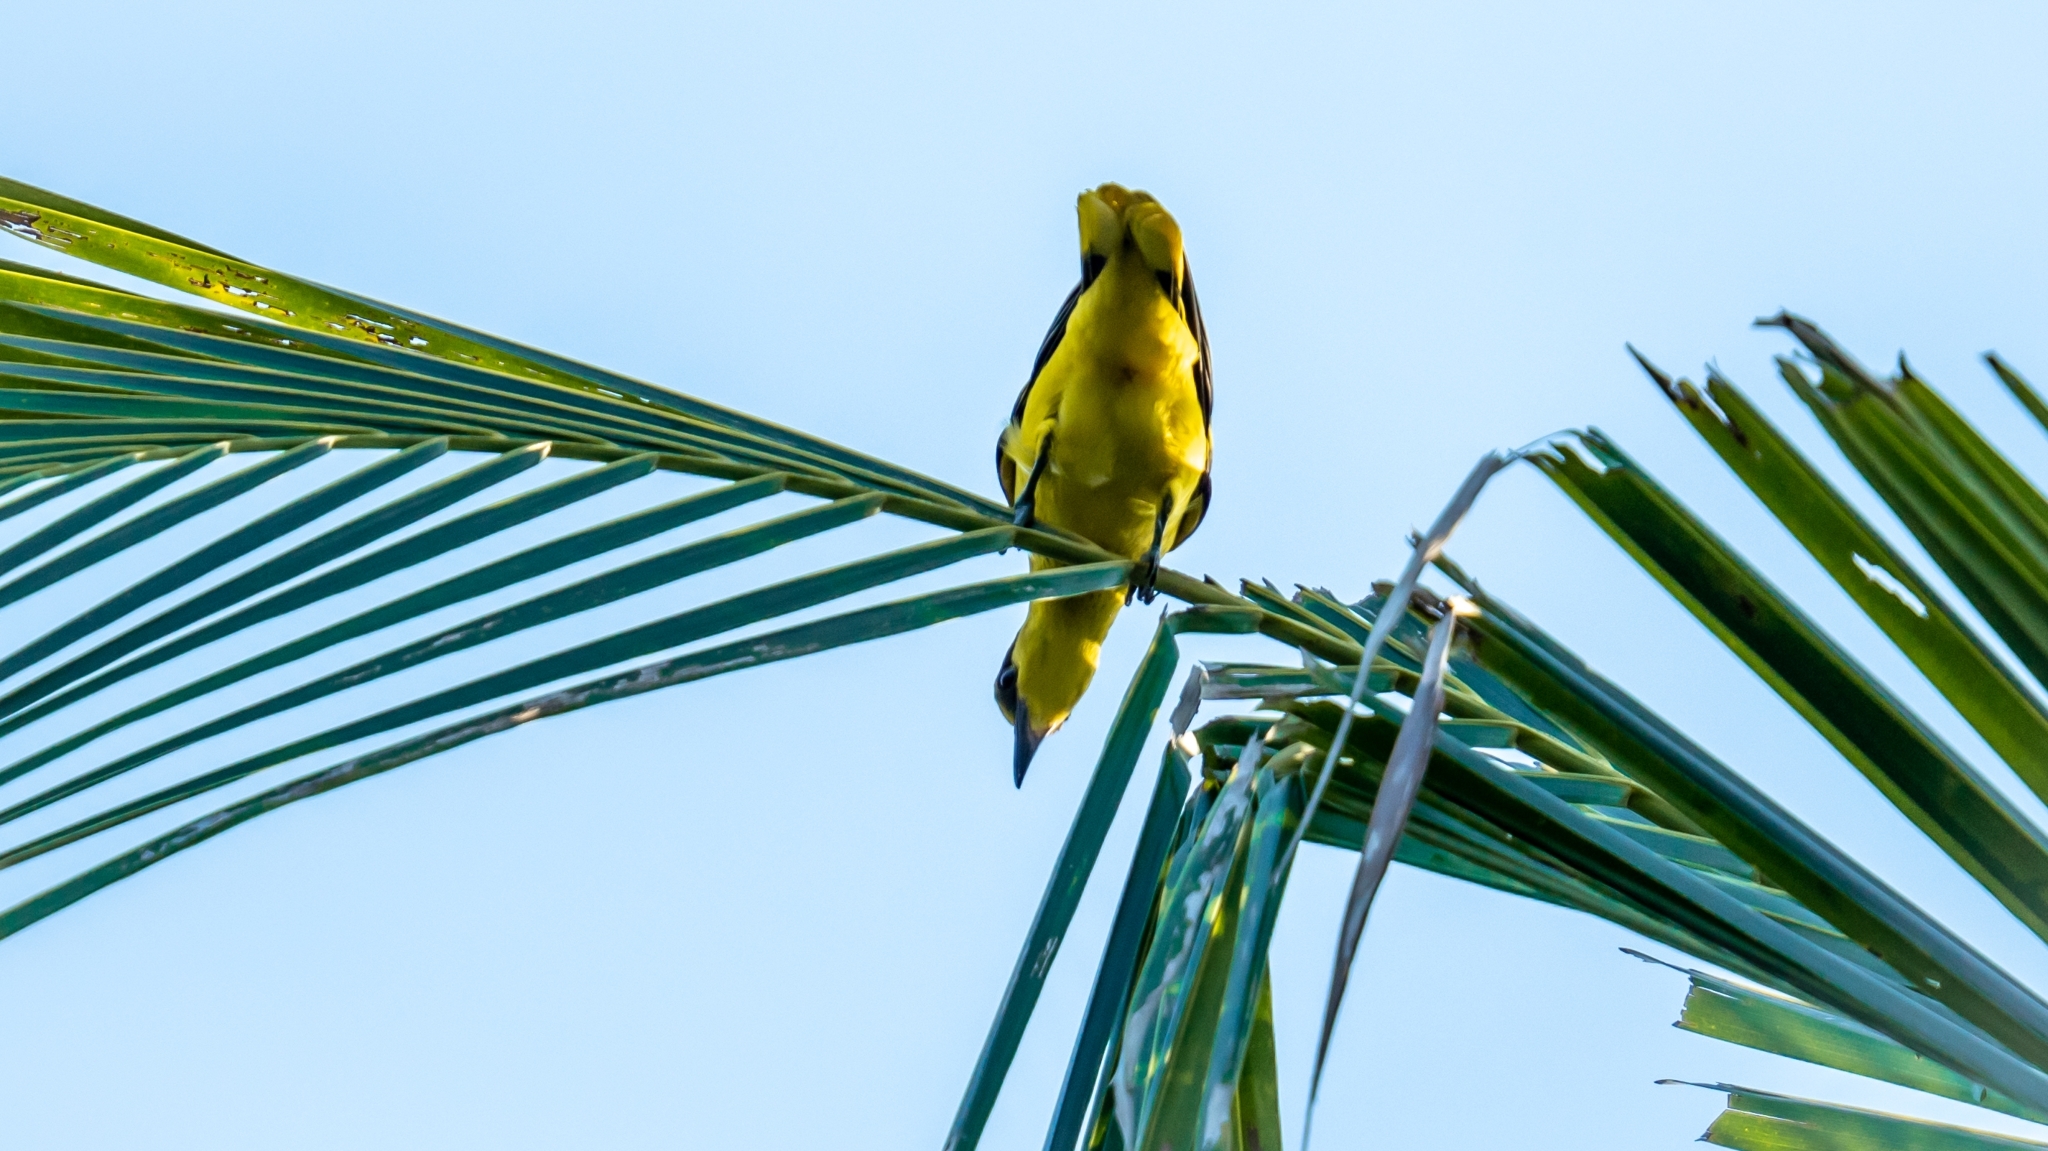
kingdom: Animalia
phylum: Chordata
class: Aves
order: Passeriformes
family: Oriolidae
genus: Oriolus
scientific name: Oriolus chinensis
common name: Black-naped oriole
